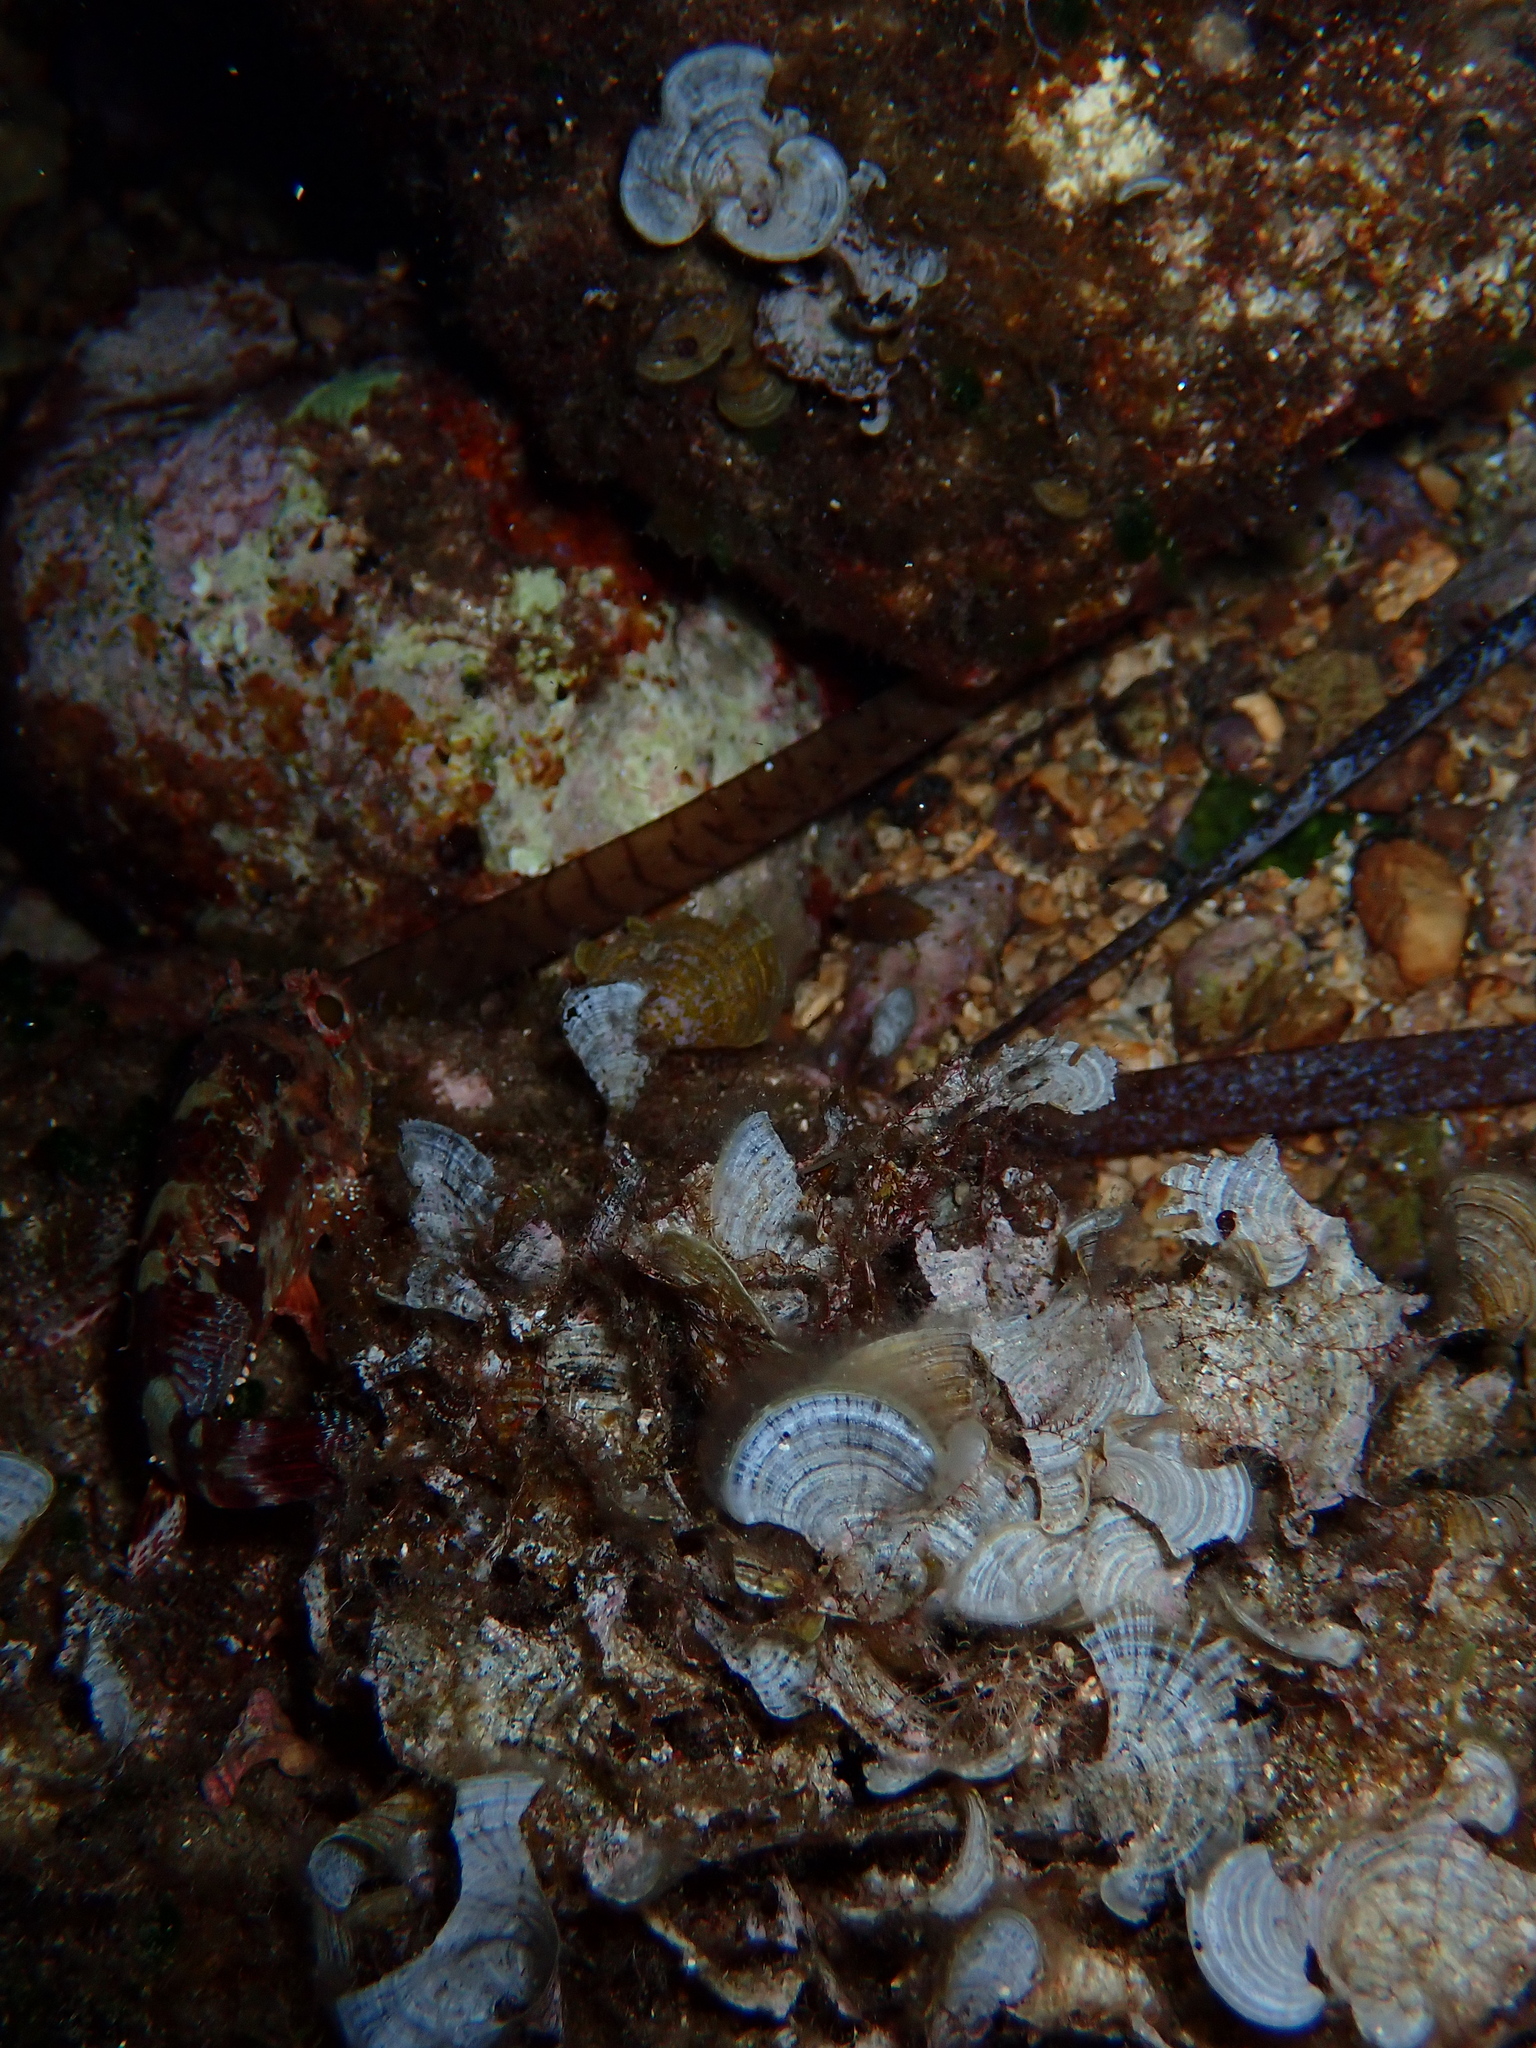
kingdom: Chromista
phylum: Ochrophyta
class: Phaeophyceae
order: Dictyotales
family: Dictyotaceae
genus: Padina
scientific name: Padina
